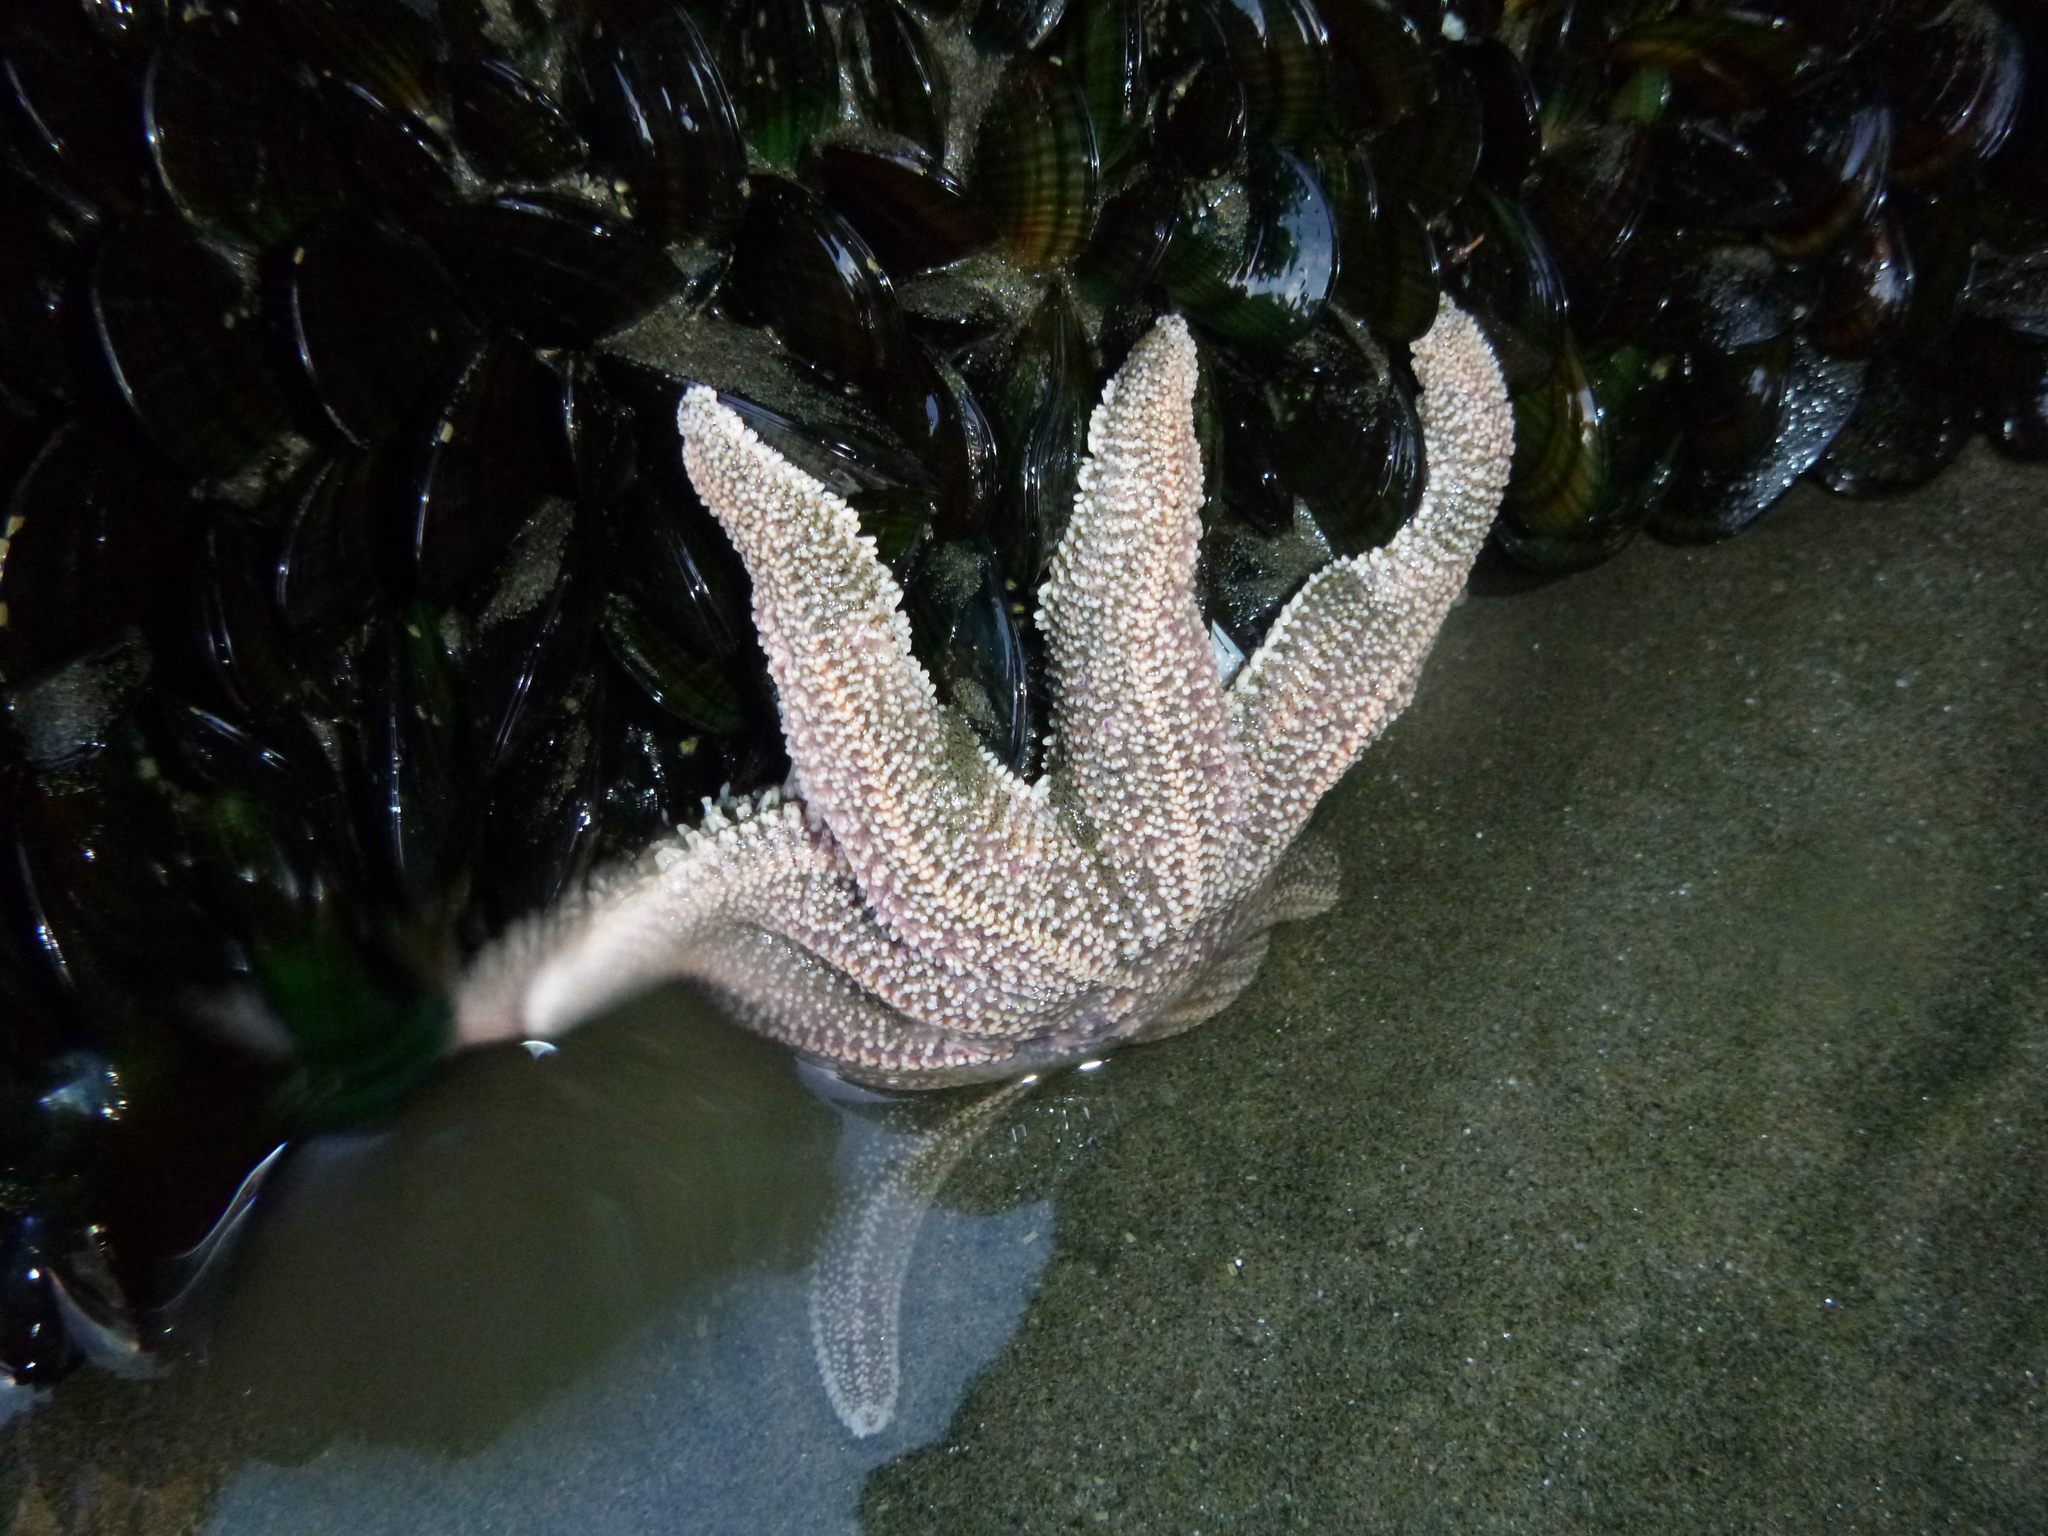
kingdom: Animalia
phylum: Echinodermata
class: Asteroidea
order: Forcipulatida
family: Stichasteridae
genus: Stichaster
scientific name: Stichaster australis
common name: Reef starfish
